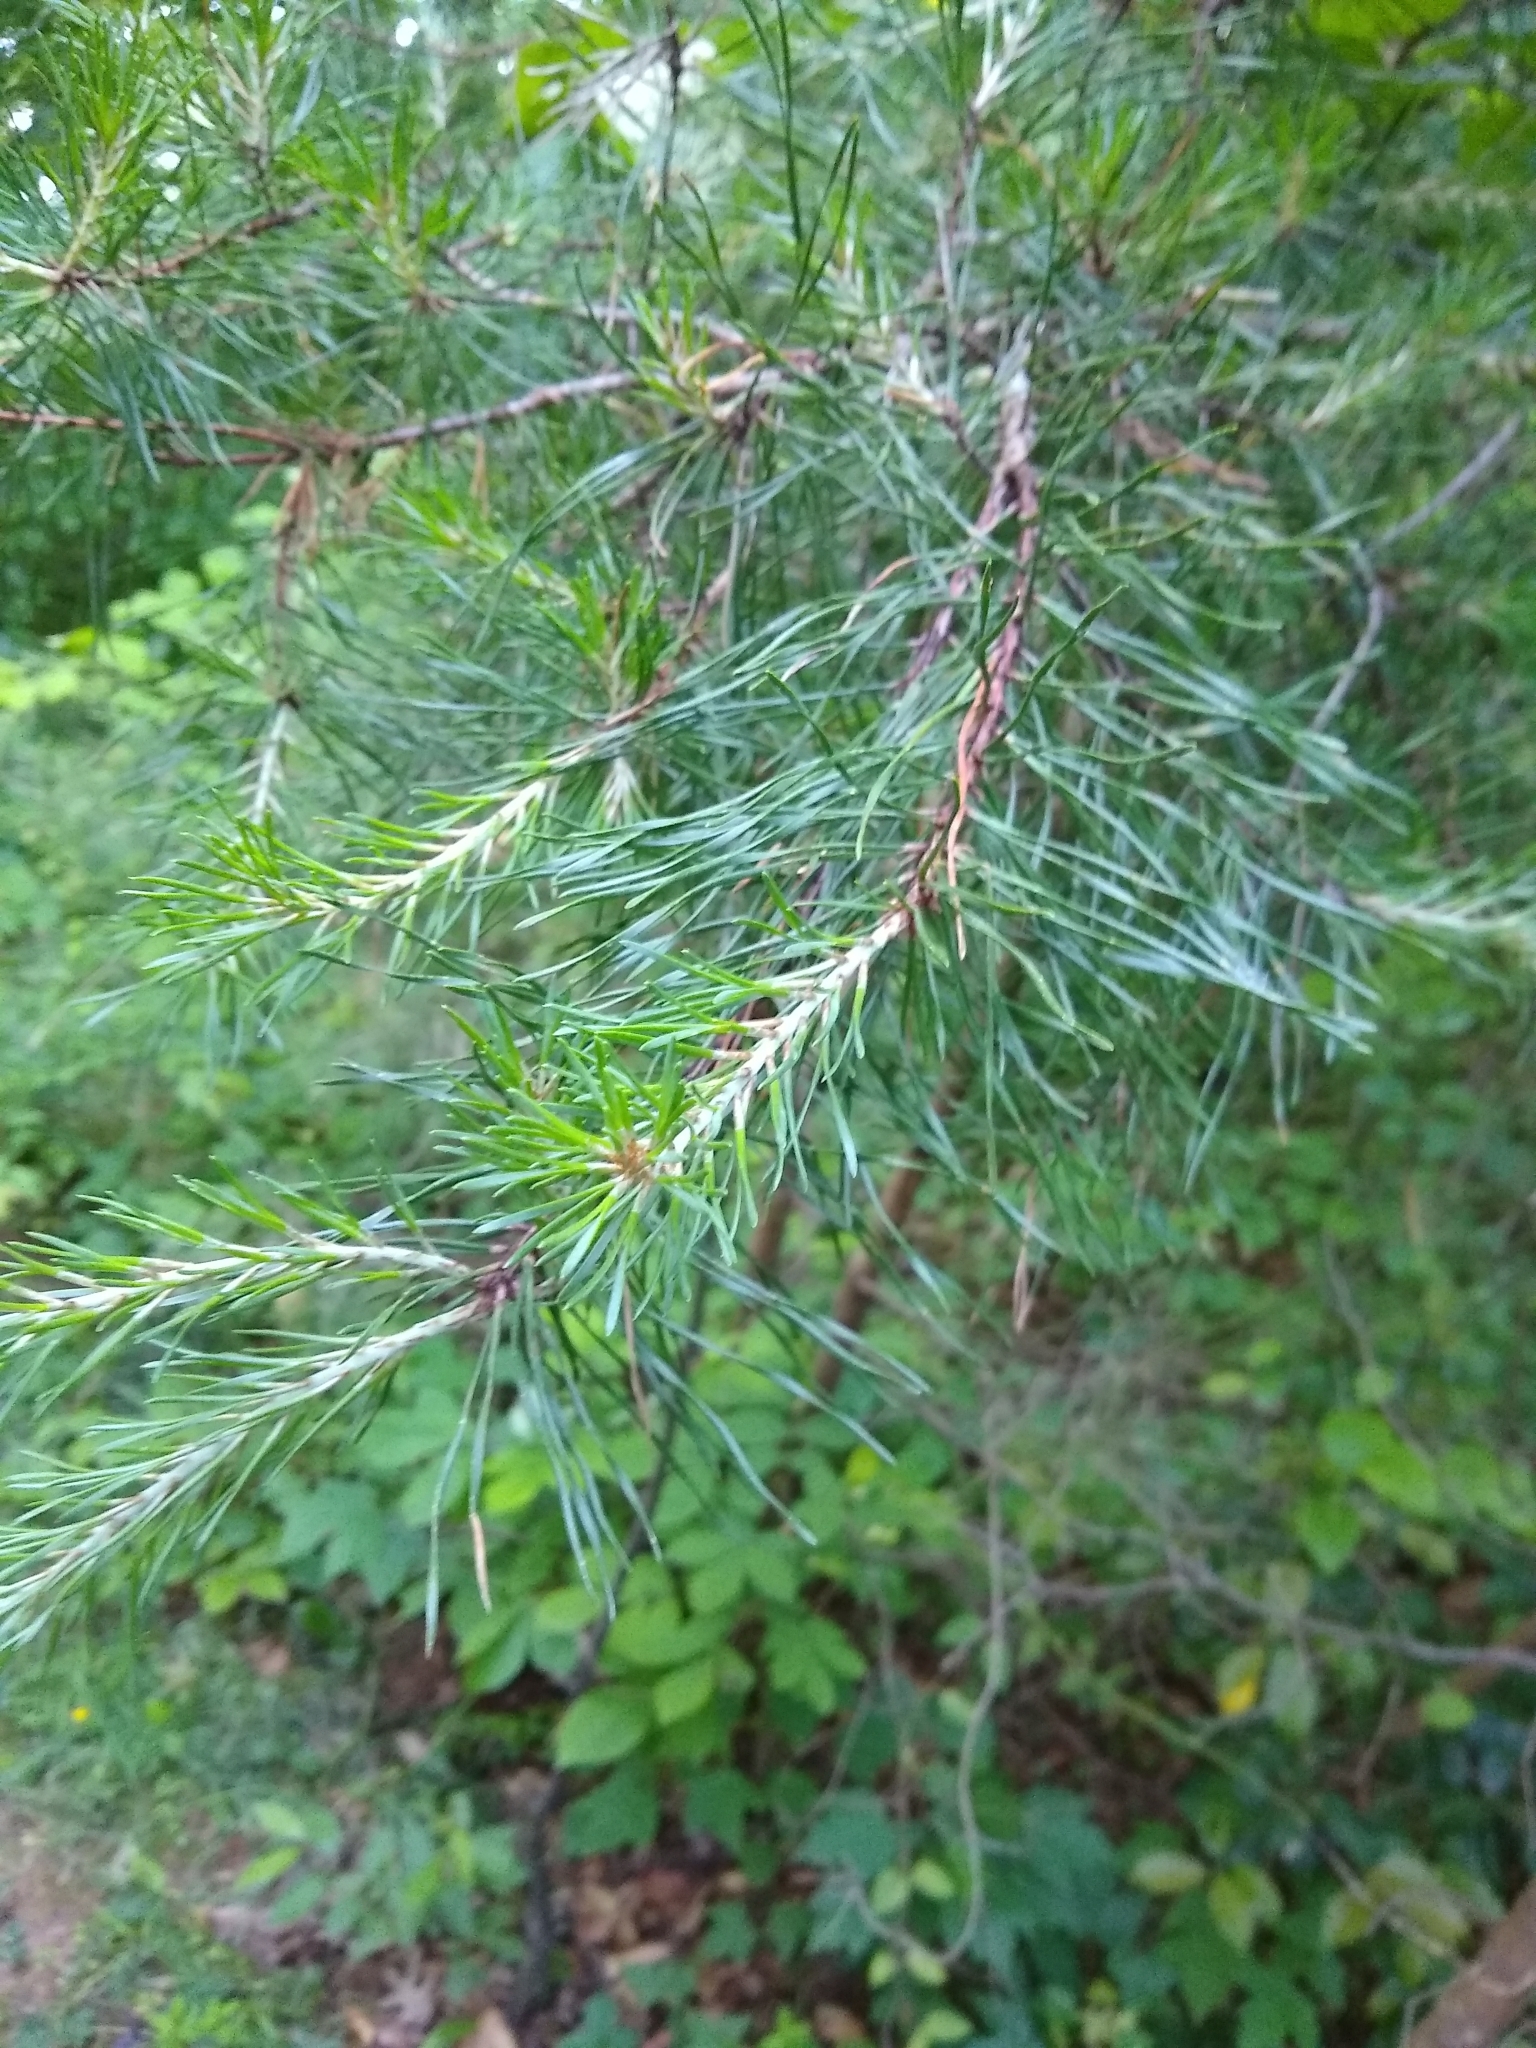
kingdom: Plantae
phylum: Tracheophyta
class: Pinopsida
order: Pinales
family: Pinaceae
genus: Pinus
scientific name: Pinus virginiana
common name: Scrub pine
